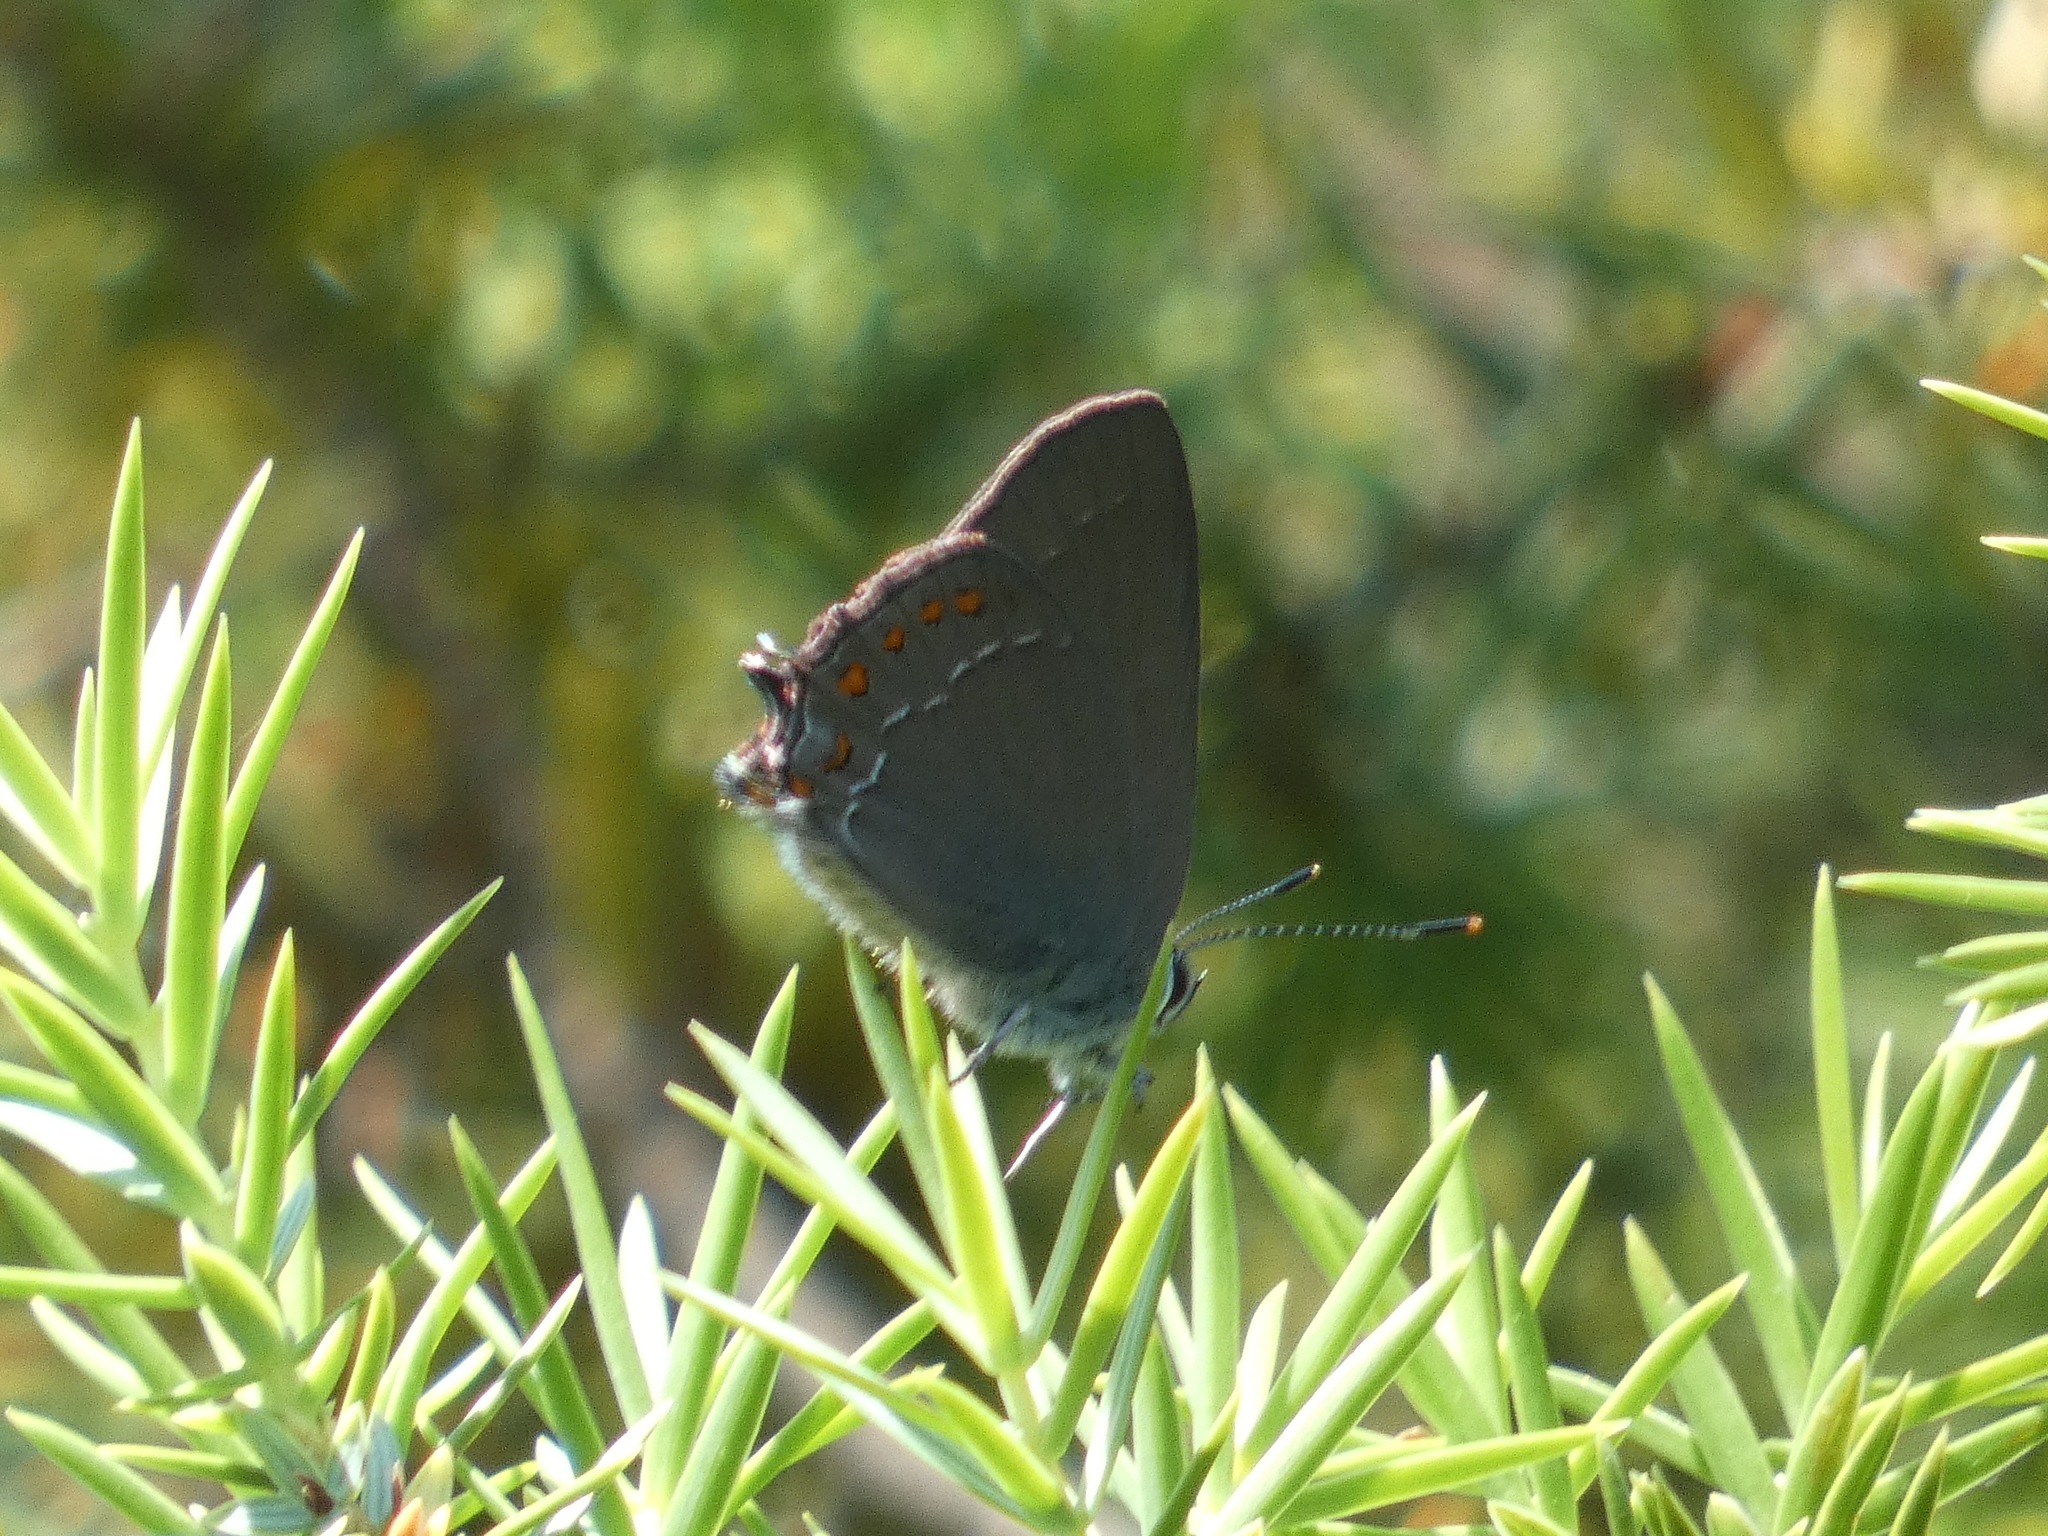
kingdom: Animalia
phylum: Arthropoda
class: Insecta
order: Lepidoptera
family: Lycaenidae
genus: Fixsenia
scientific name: Fixsenia esculi
